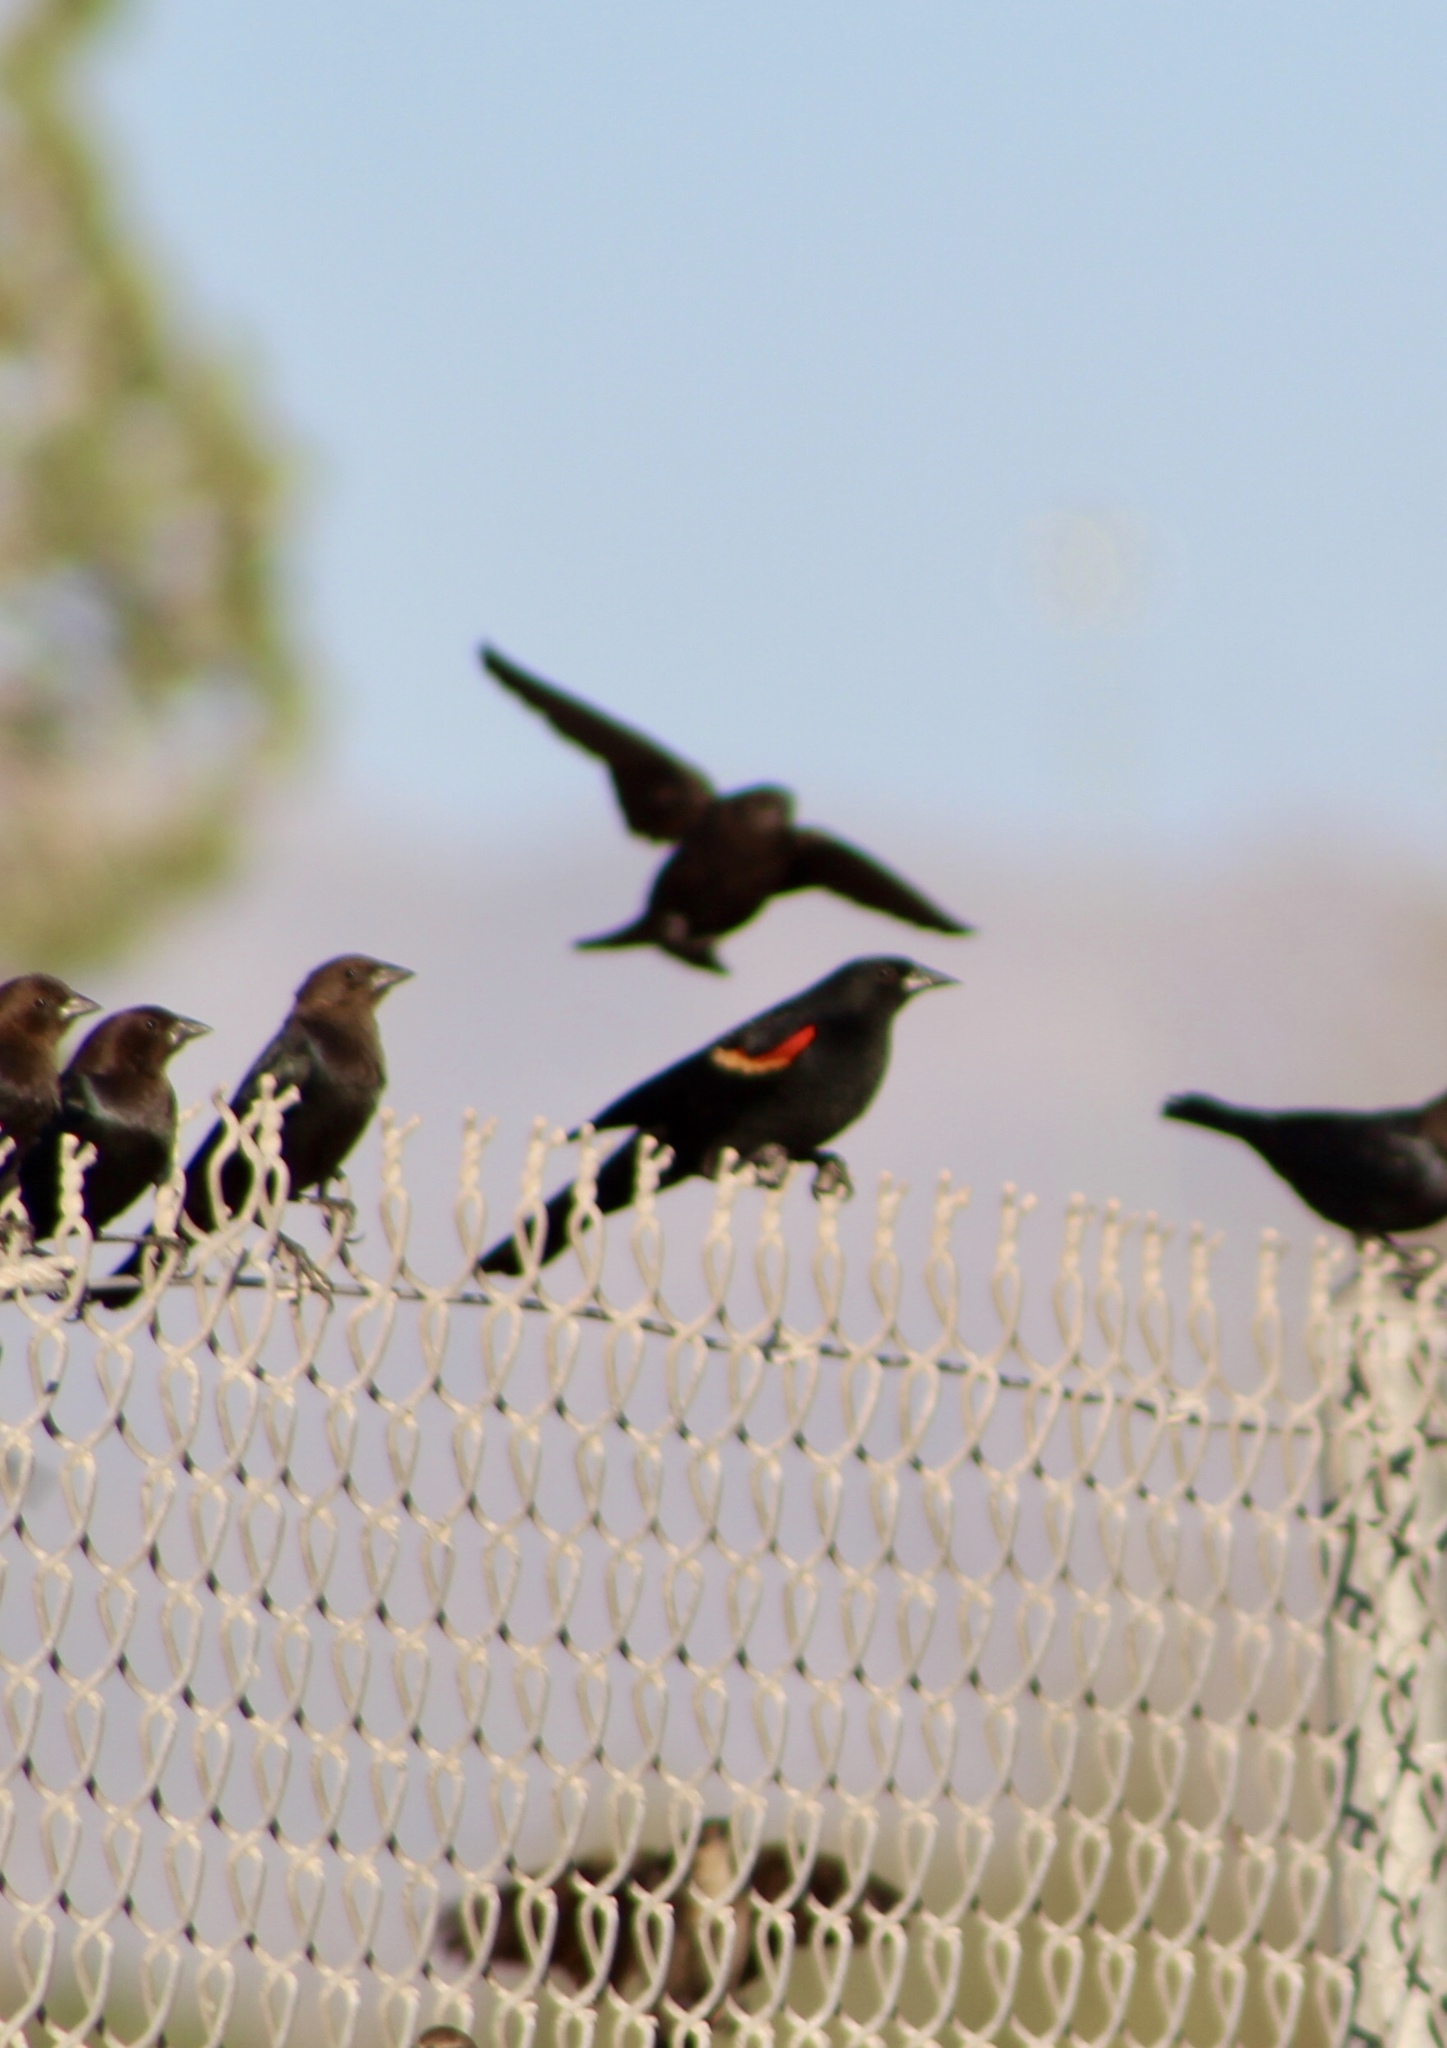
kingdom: Animalia
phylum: Chordata
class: Aves
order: Passeriformes
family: Icteridae
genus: Agelaius
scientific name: Agelaius phoeniceus
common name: Red-winged blackbird
